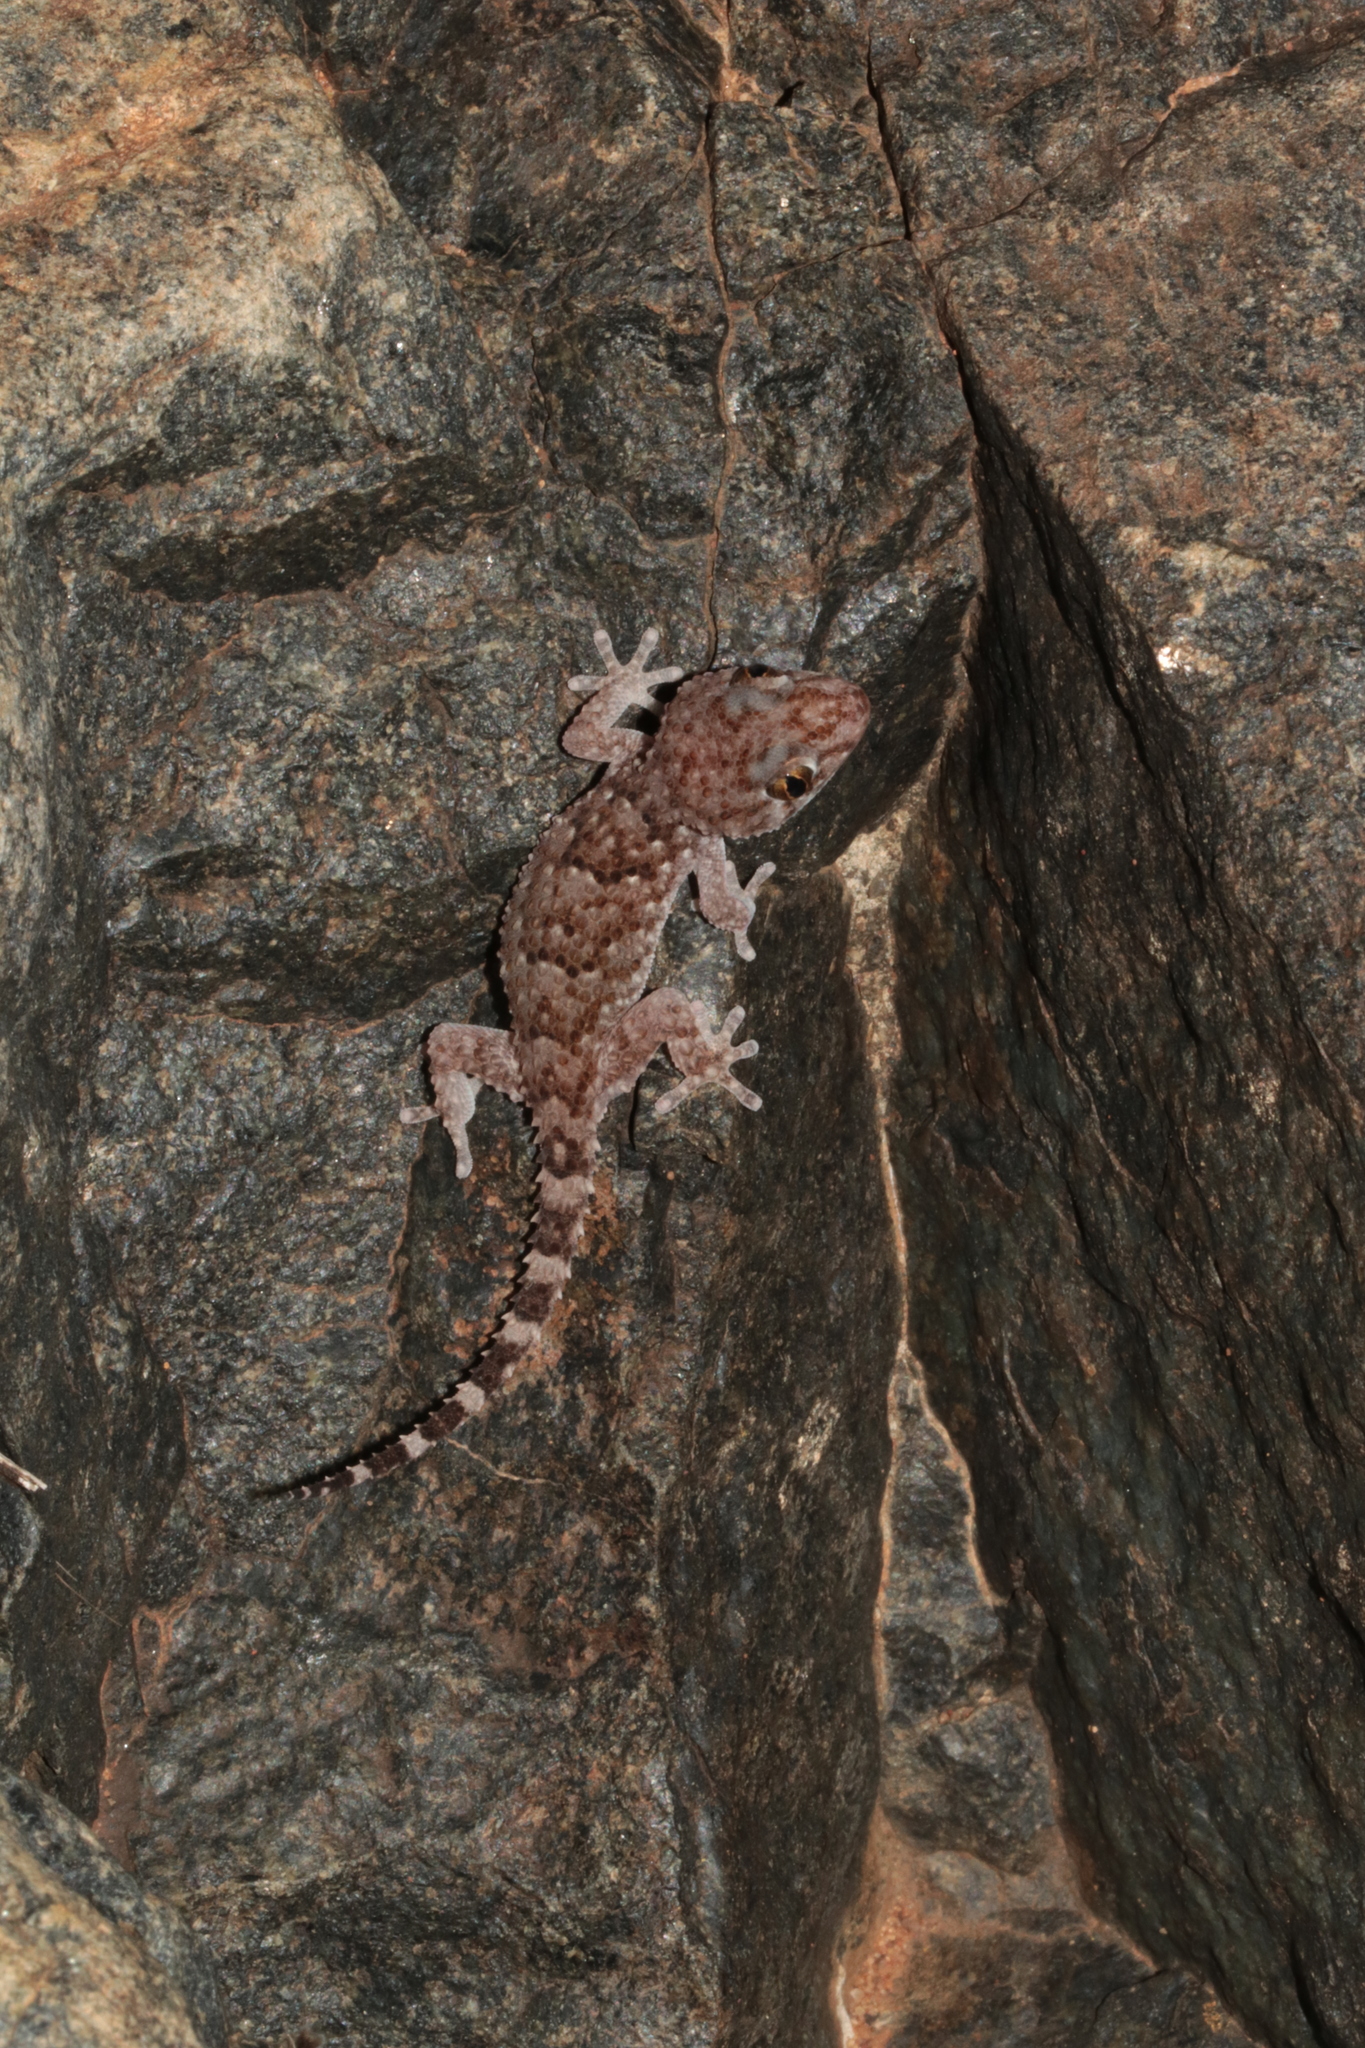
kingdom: Animalia
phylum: Chordata
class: Squamata
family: Gekkonidae
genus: Chondrodactylus
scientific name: Chondrodactylus turneri
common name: Turner’s gecko
